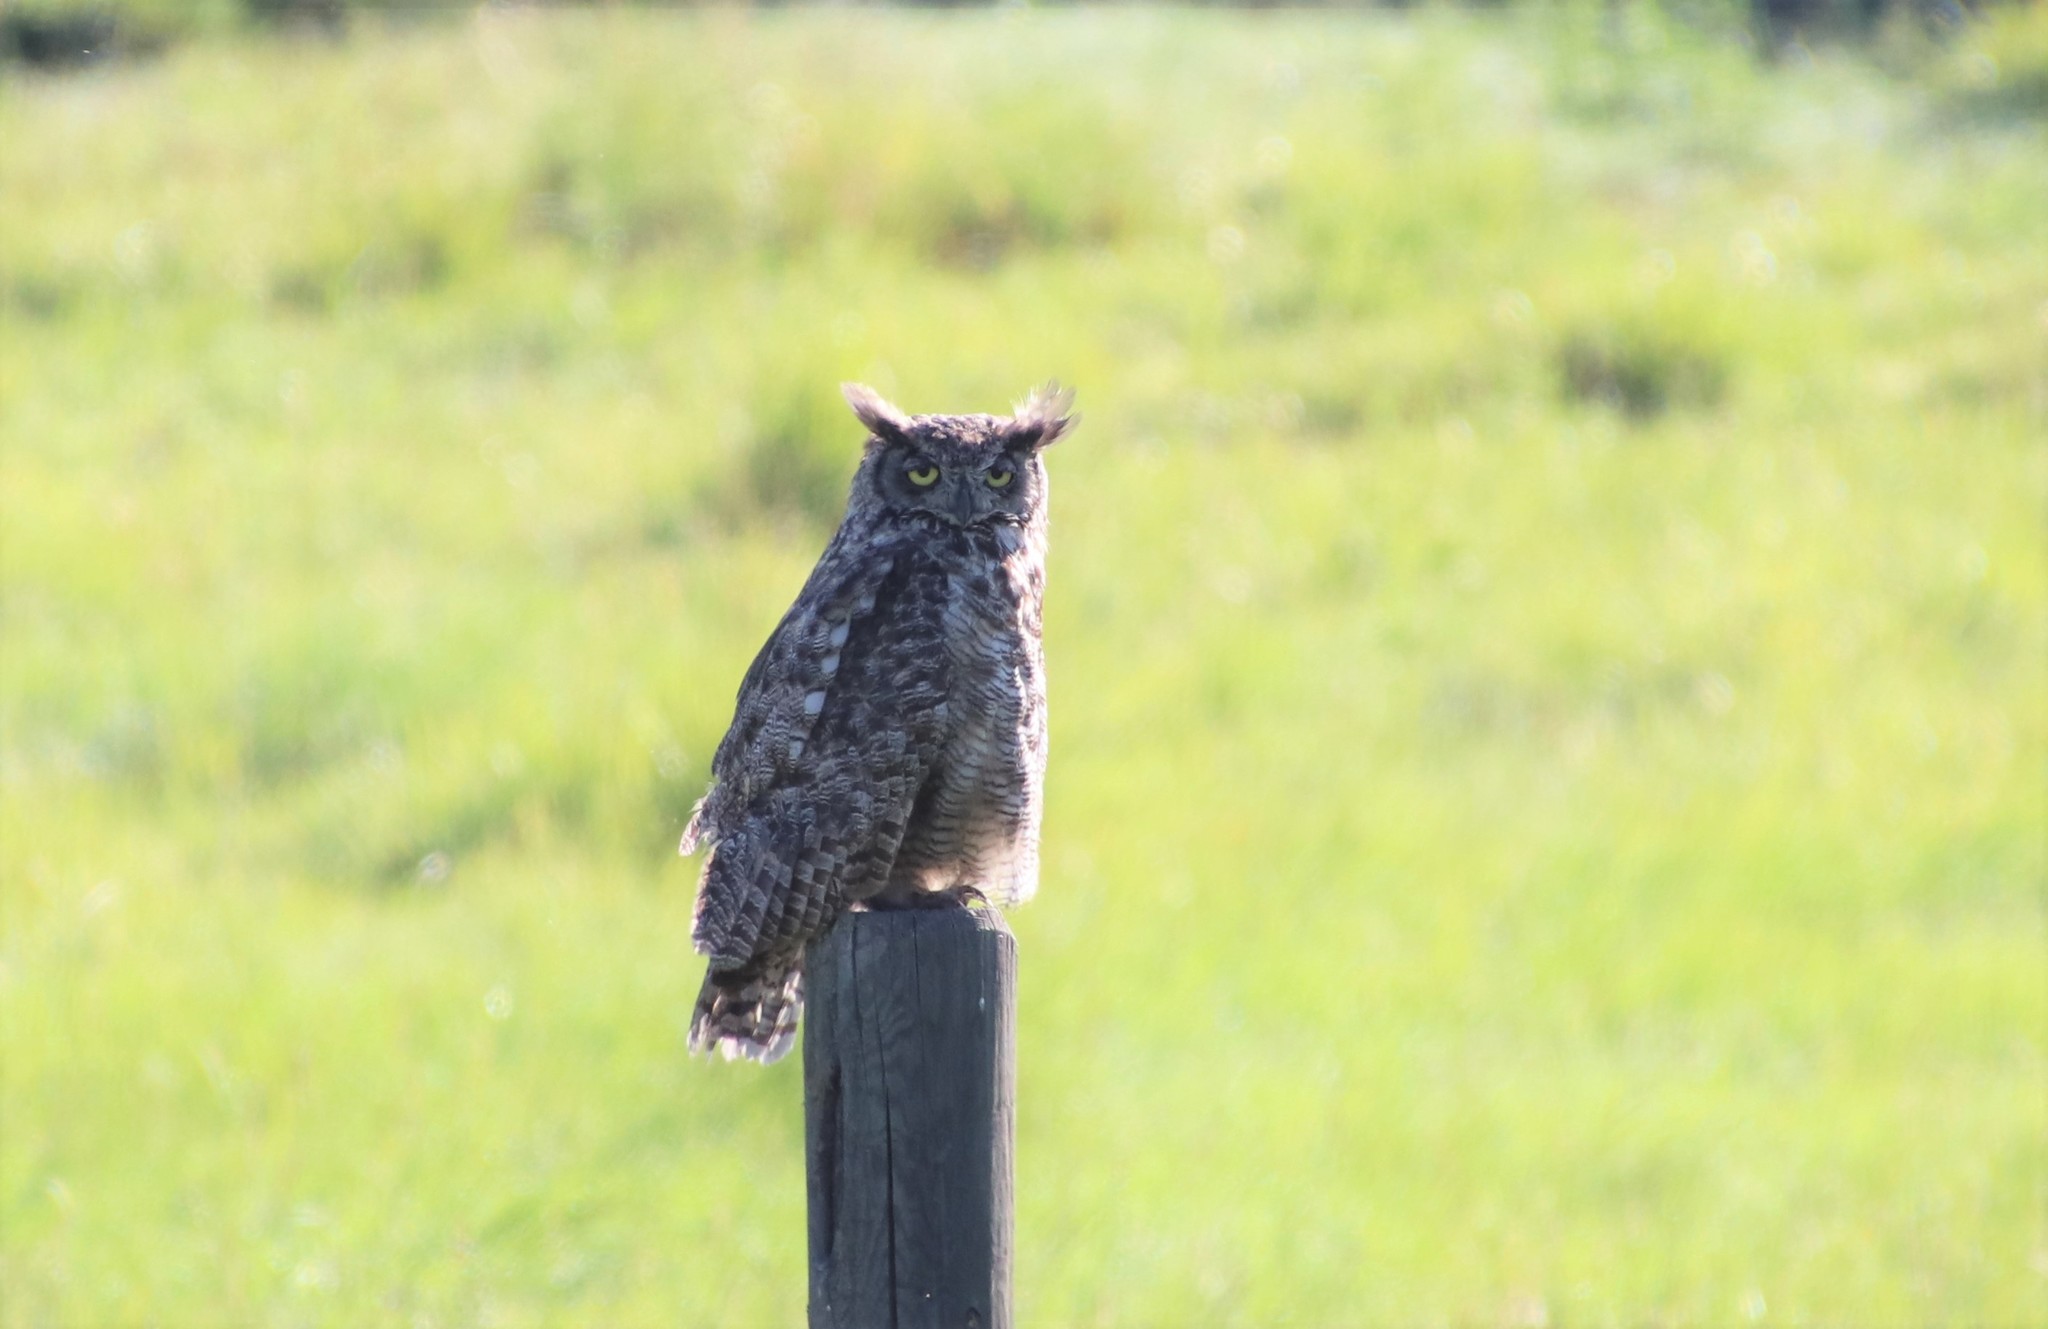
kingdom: Animalia
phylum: Chordata
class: Aves
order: Strigiformes
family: Strigidae
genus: Bubo
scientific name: Bubo virginianus
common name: Great horned owl
